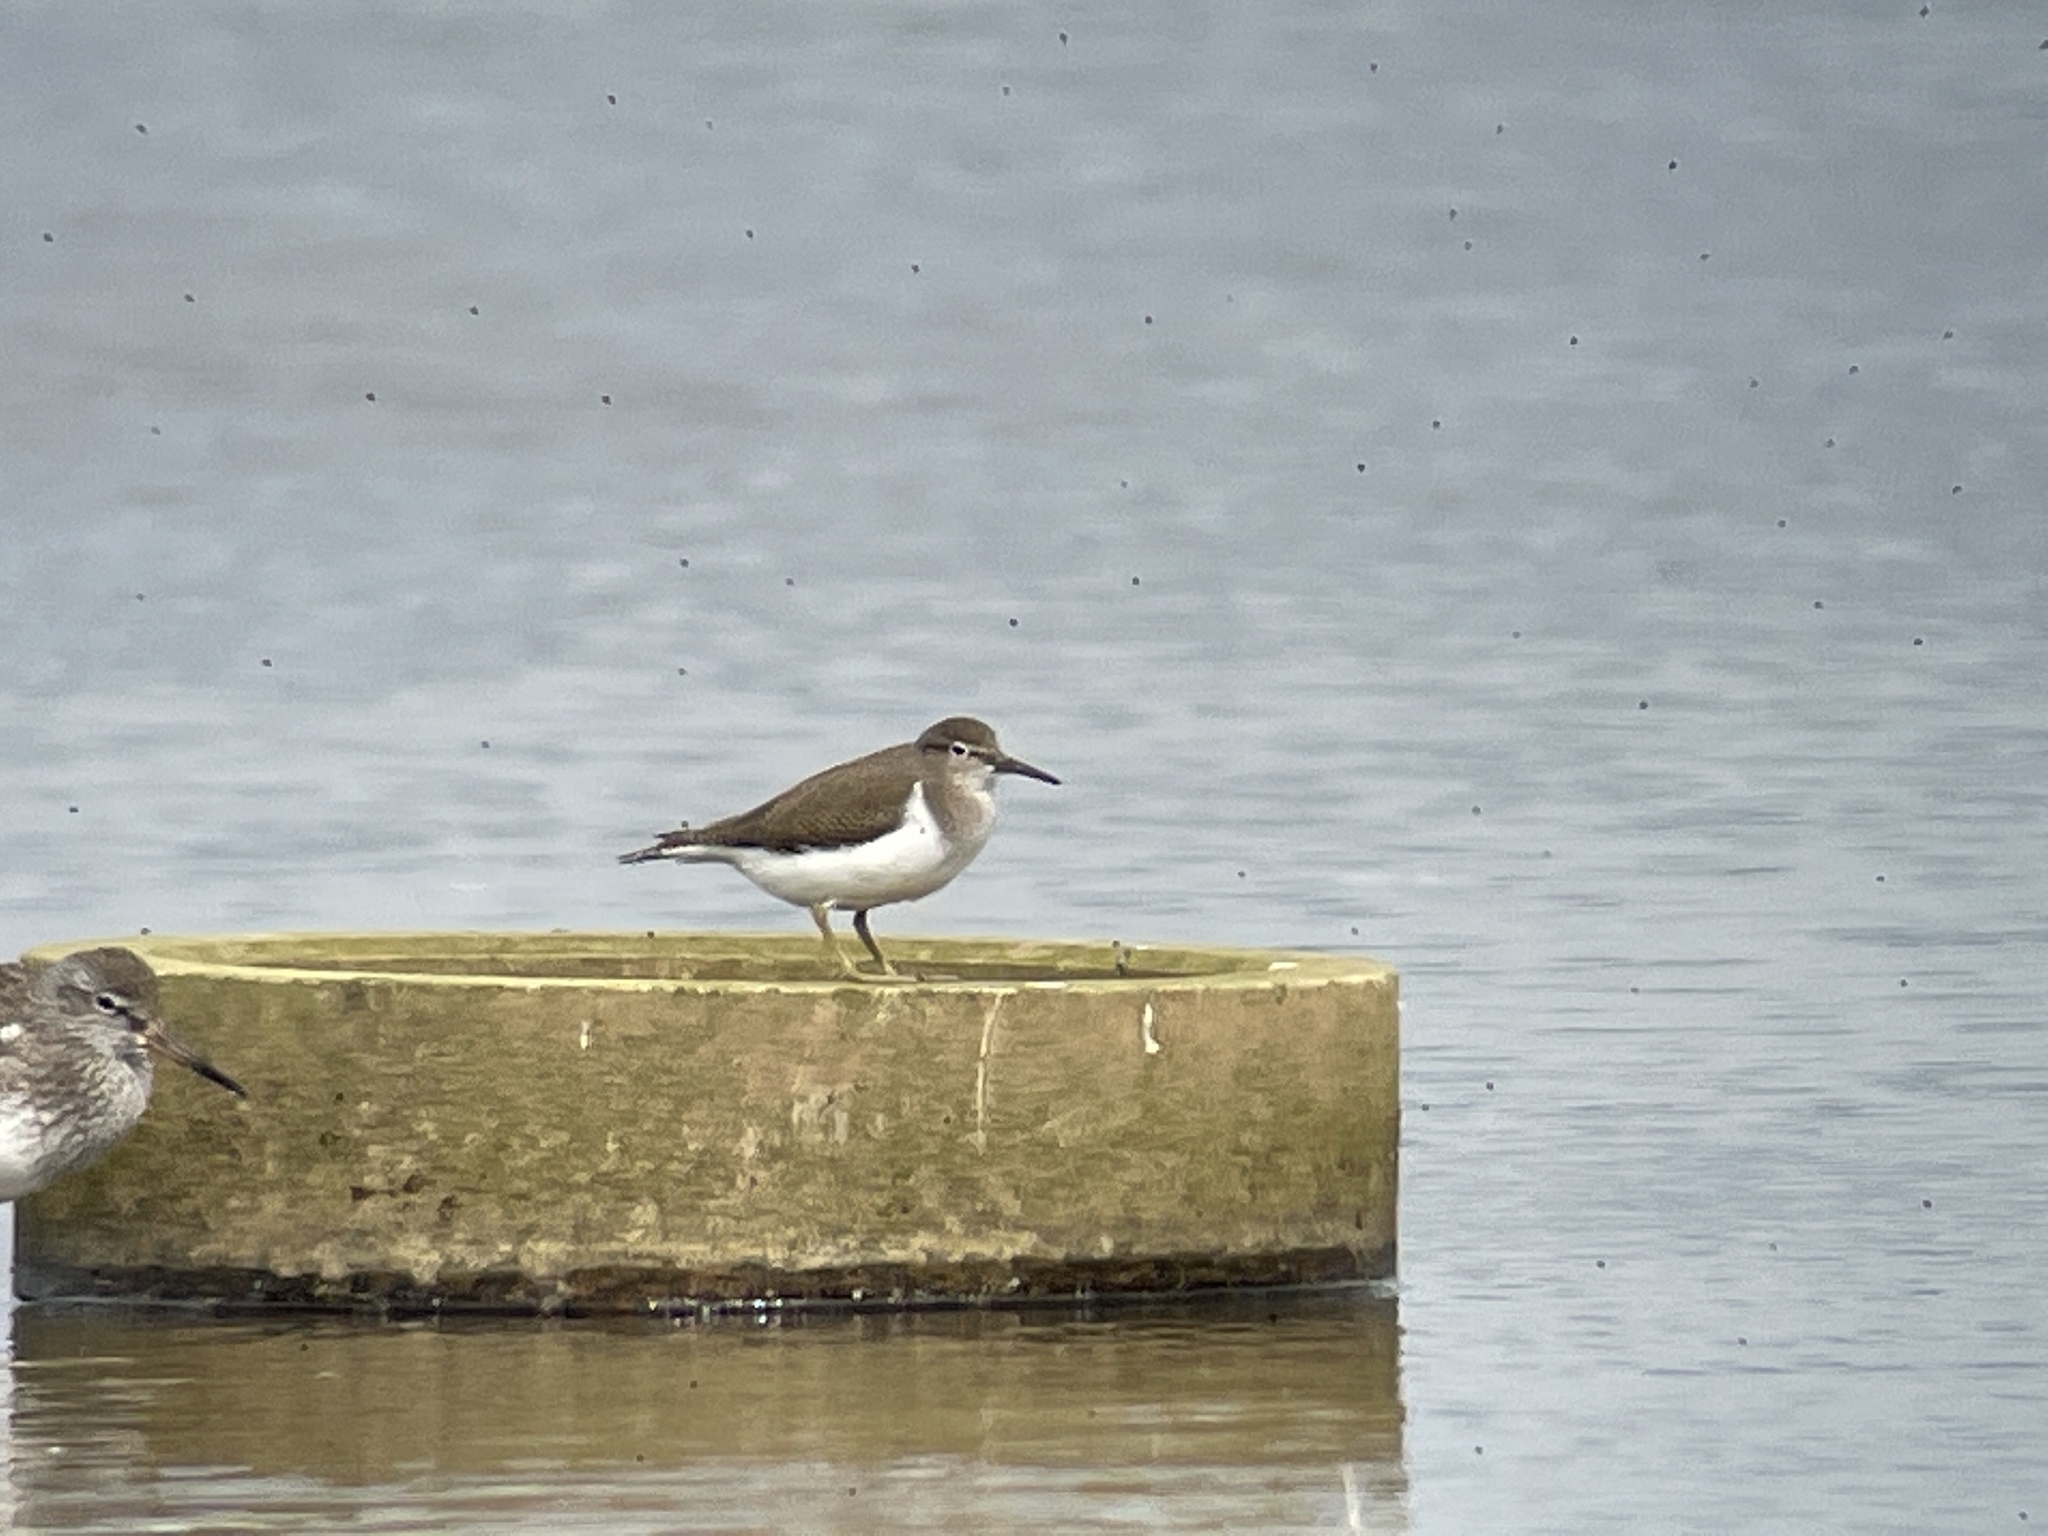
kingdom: Animalia
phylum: Chordata
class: Aves
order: Charadriiformes
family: Scolopacidae
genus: Actitis
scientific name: Actitis hypoleucos
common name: Common sandpiper
